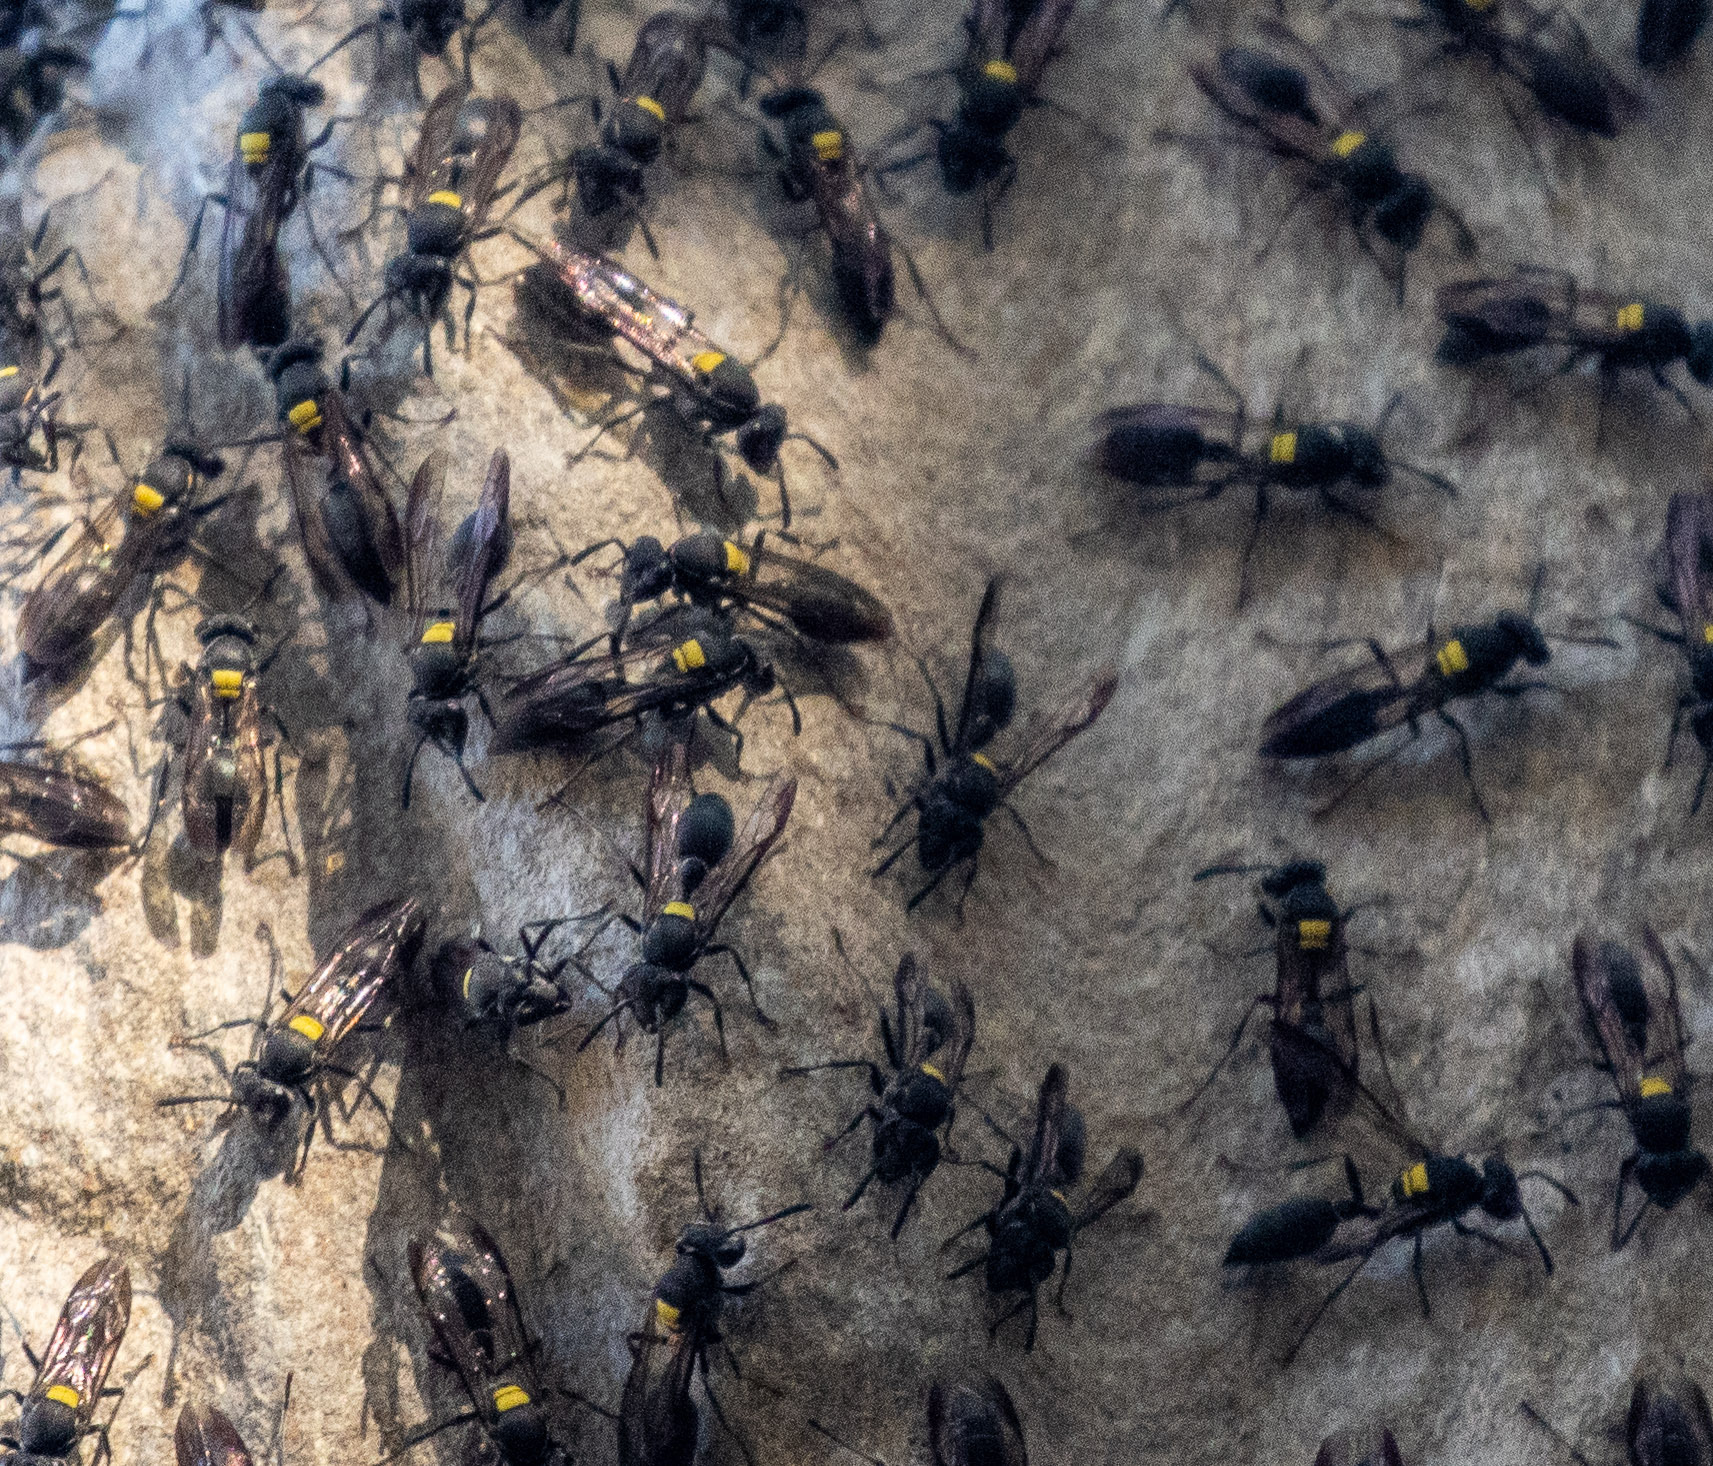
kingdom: Animalia
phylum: Arthropoda
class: Insecta
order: Hymenoptera
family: Eumenidae
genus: Polybia
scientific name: Polybia jurinei
